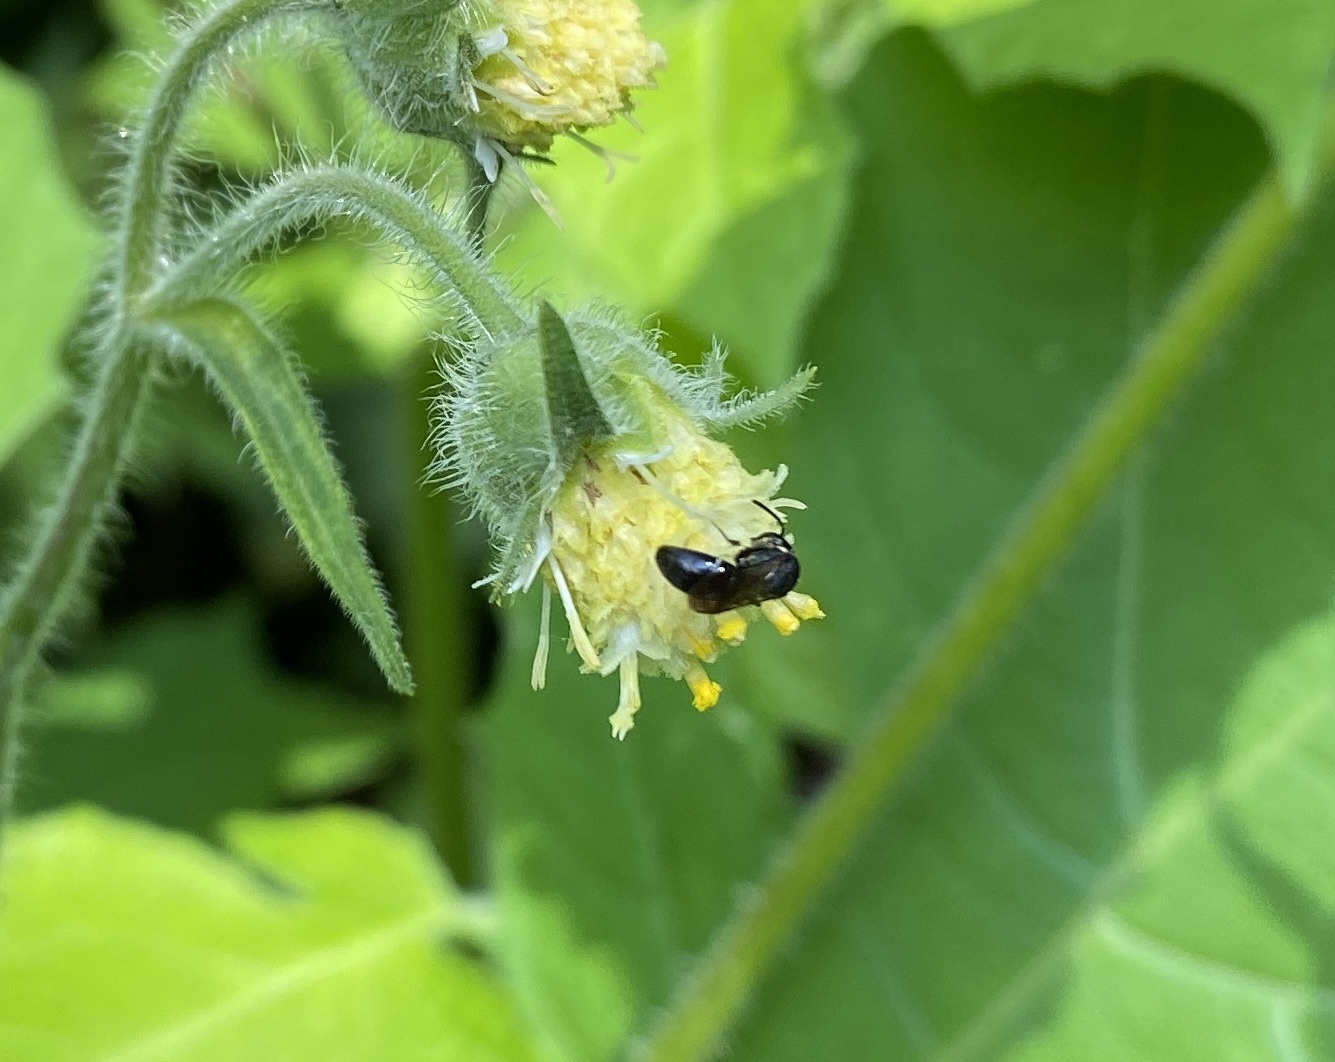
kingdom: Animalia
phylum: Arthropoda
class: Insecta
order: Hymenoptera
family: Colletidae
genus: Hylaeus
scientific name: Hylaeus modestus
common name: Yellow-faced bee
